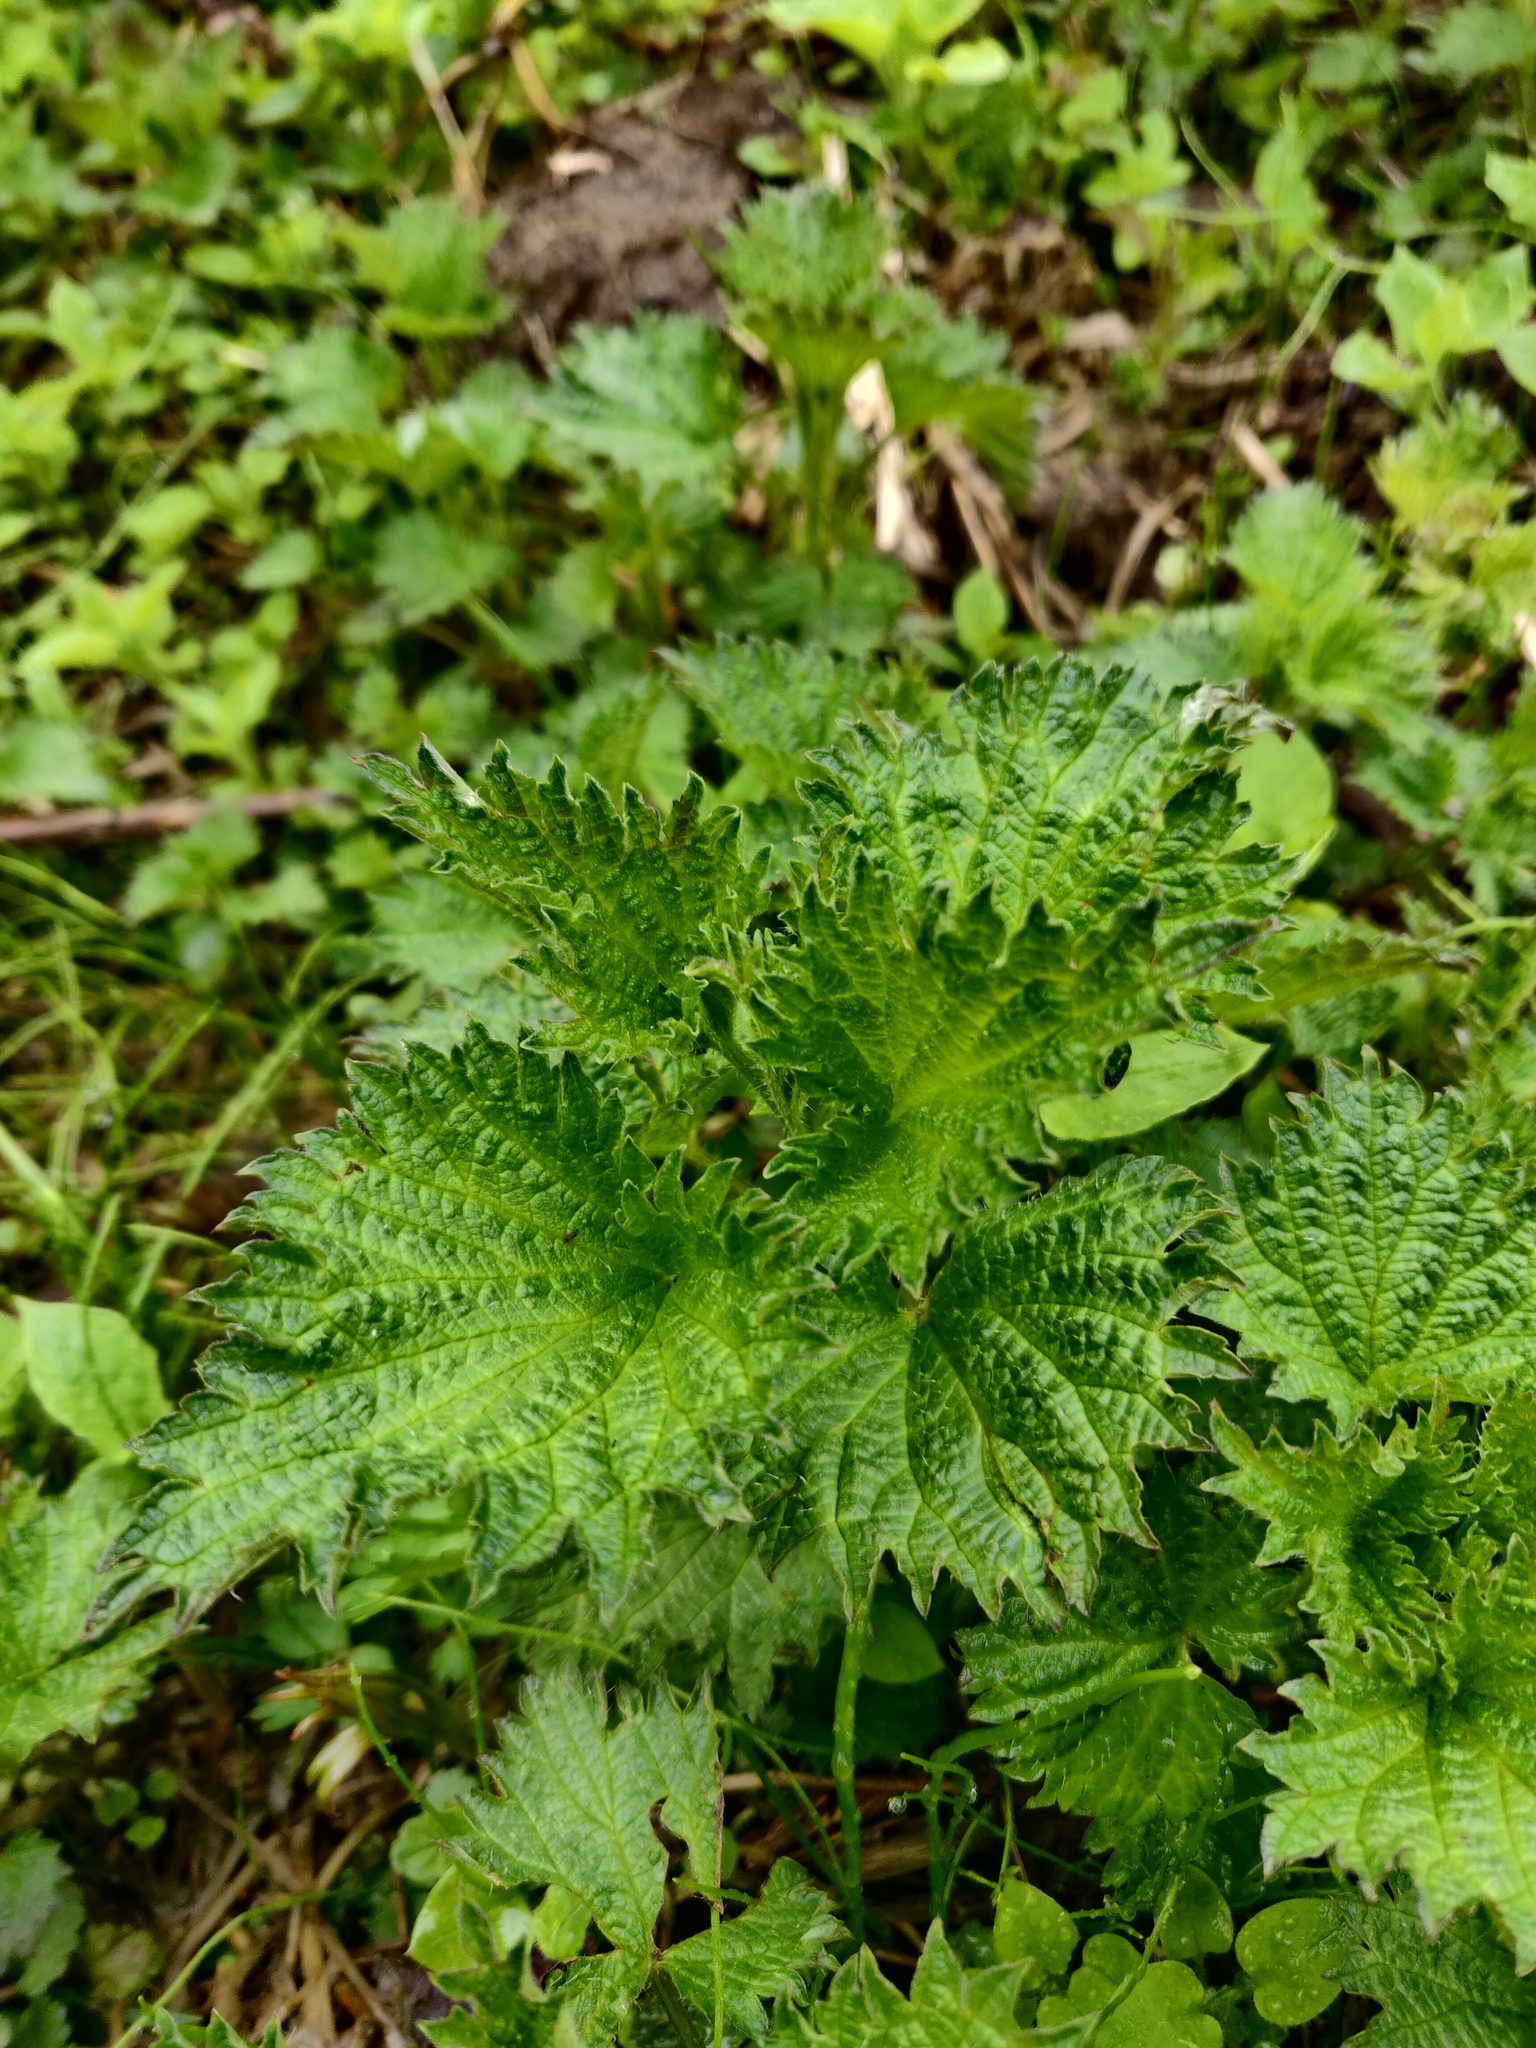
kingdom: Plantae
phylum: Tracheophyta
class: Magnoliopsida
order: Rosales
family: Urticaceae
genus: Urtica
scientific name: Urtica dioica
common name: Common nettle
